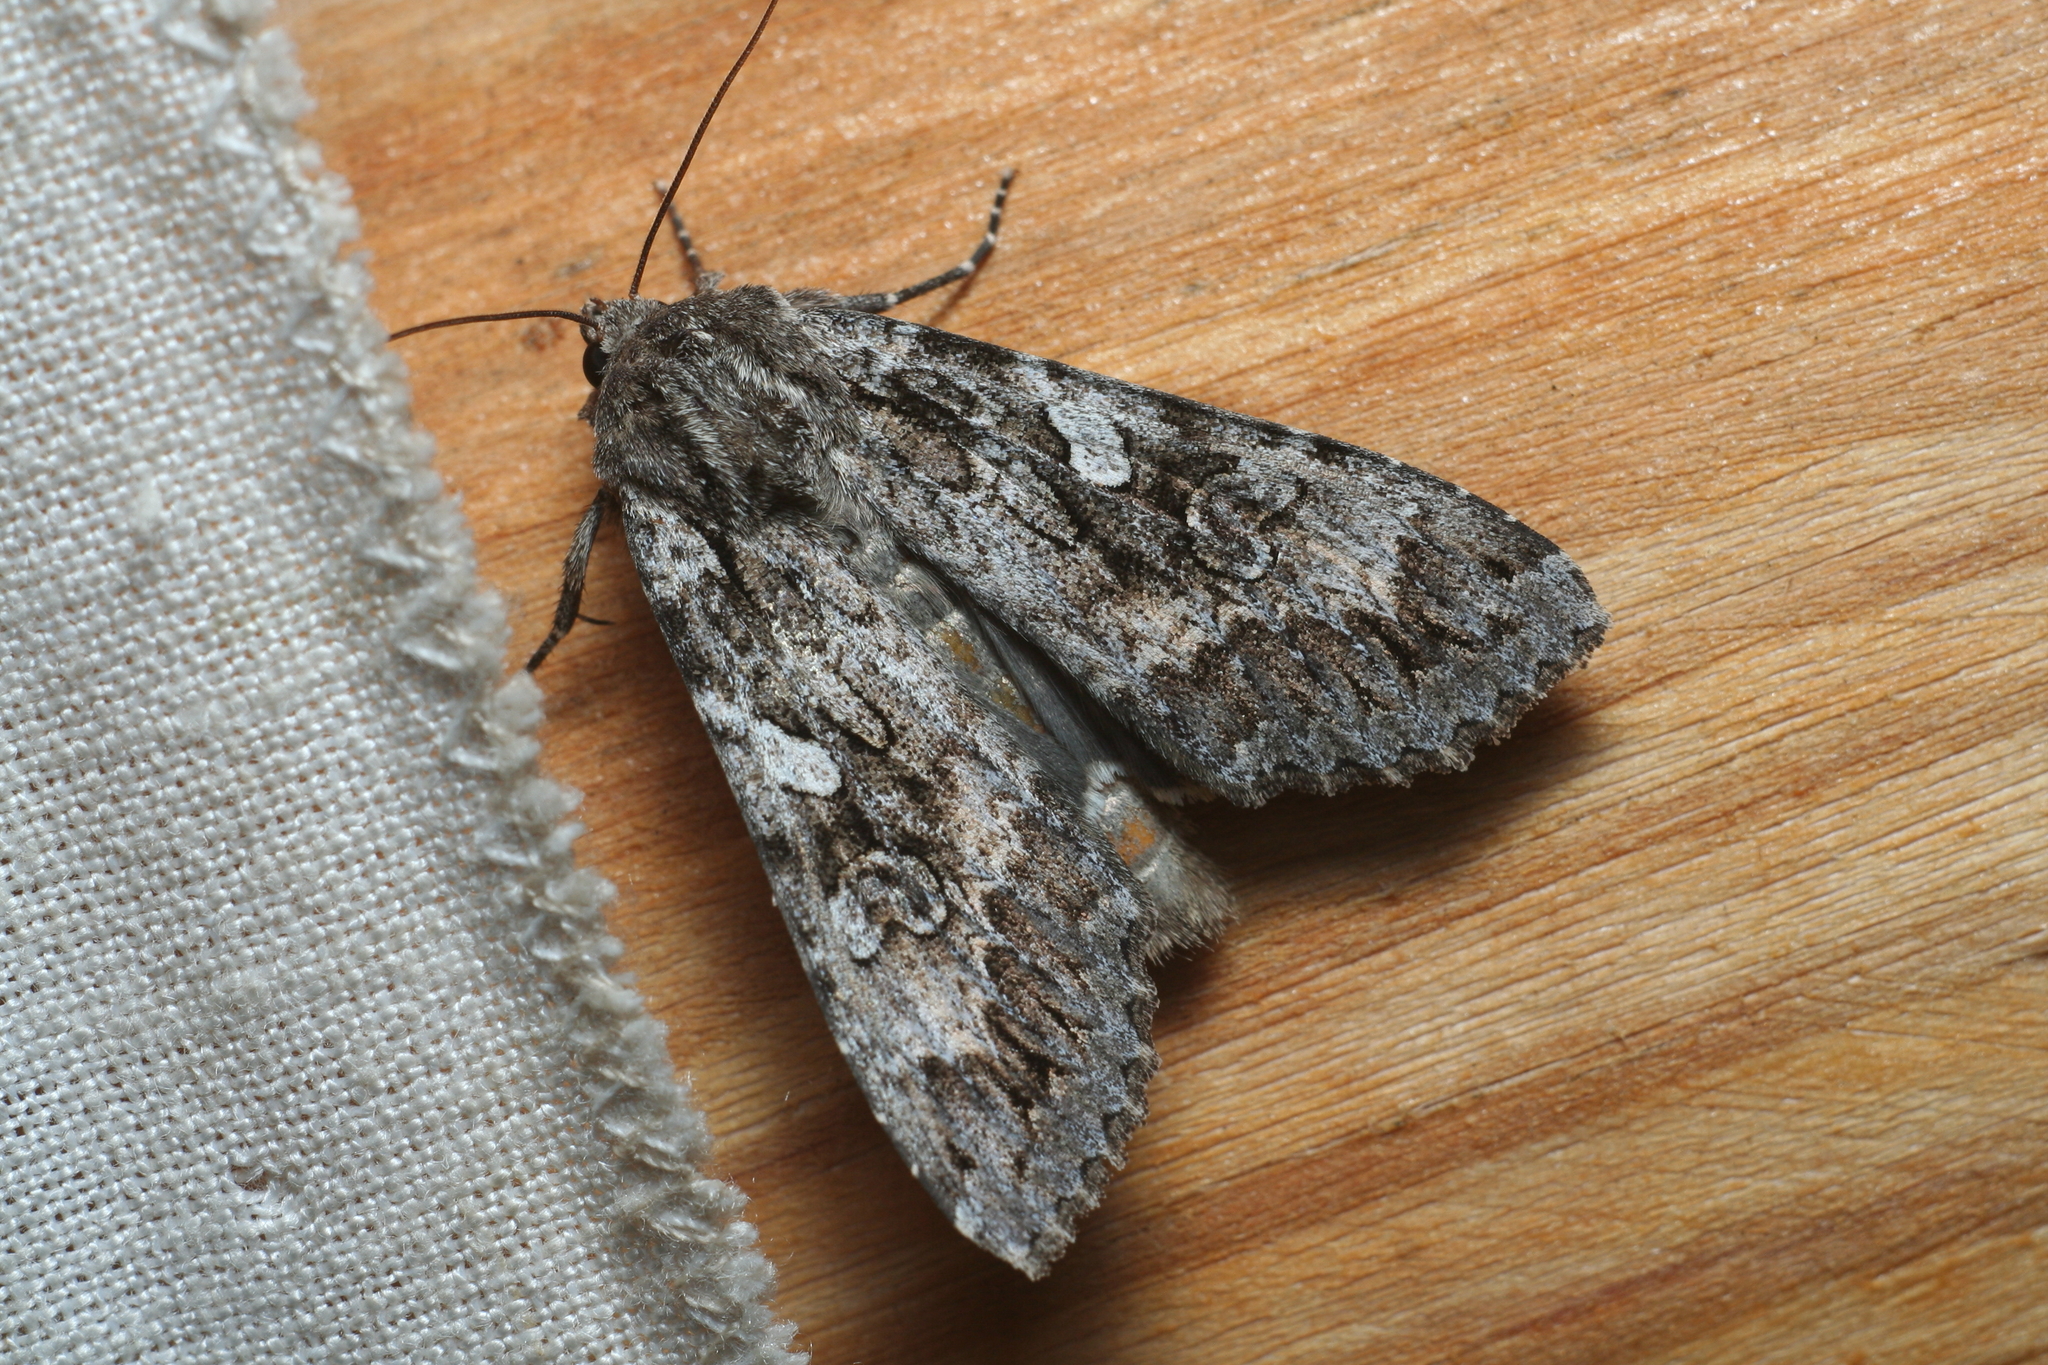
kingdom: Animalia
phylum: Arthropoda
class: Insecta
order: Lepidoptera
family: Noctuidae
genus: Eurois
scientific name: Eurois occulta
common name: Great brocade
